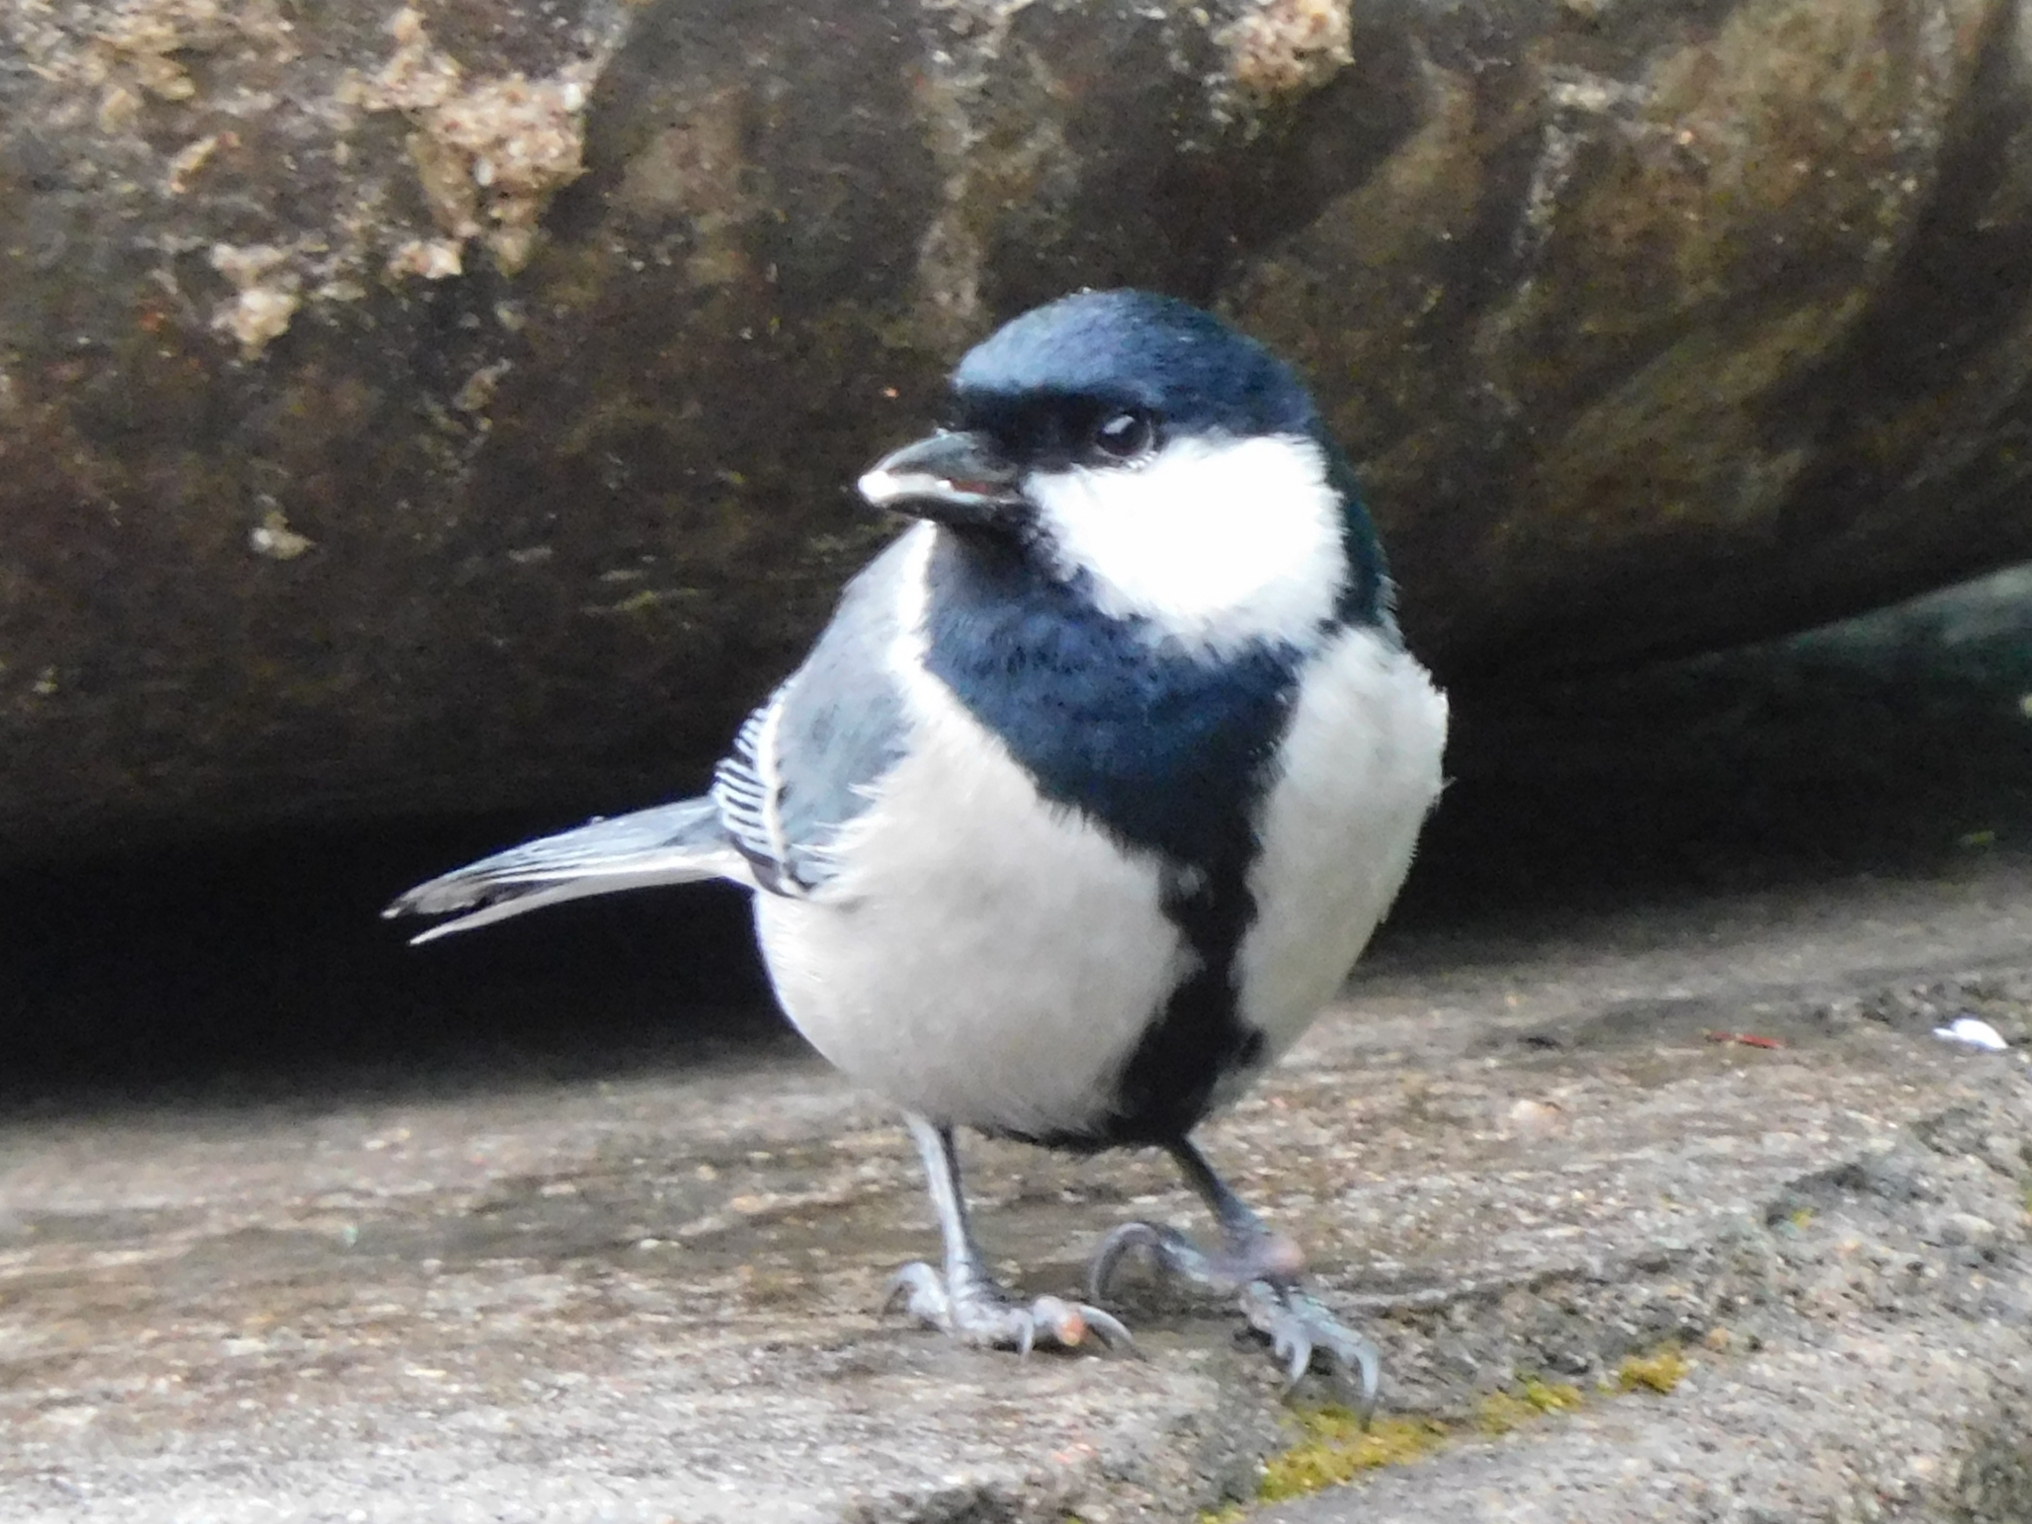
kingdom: Animalia
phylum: Chordata
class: Aves
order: Passeriformes
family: Paridae
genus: Parus
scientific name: Parus cinereus
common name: Cinereous tit
